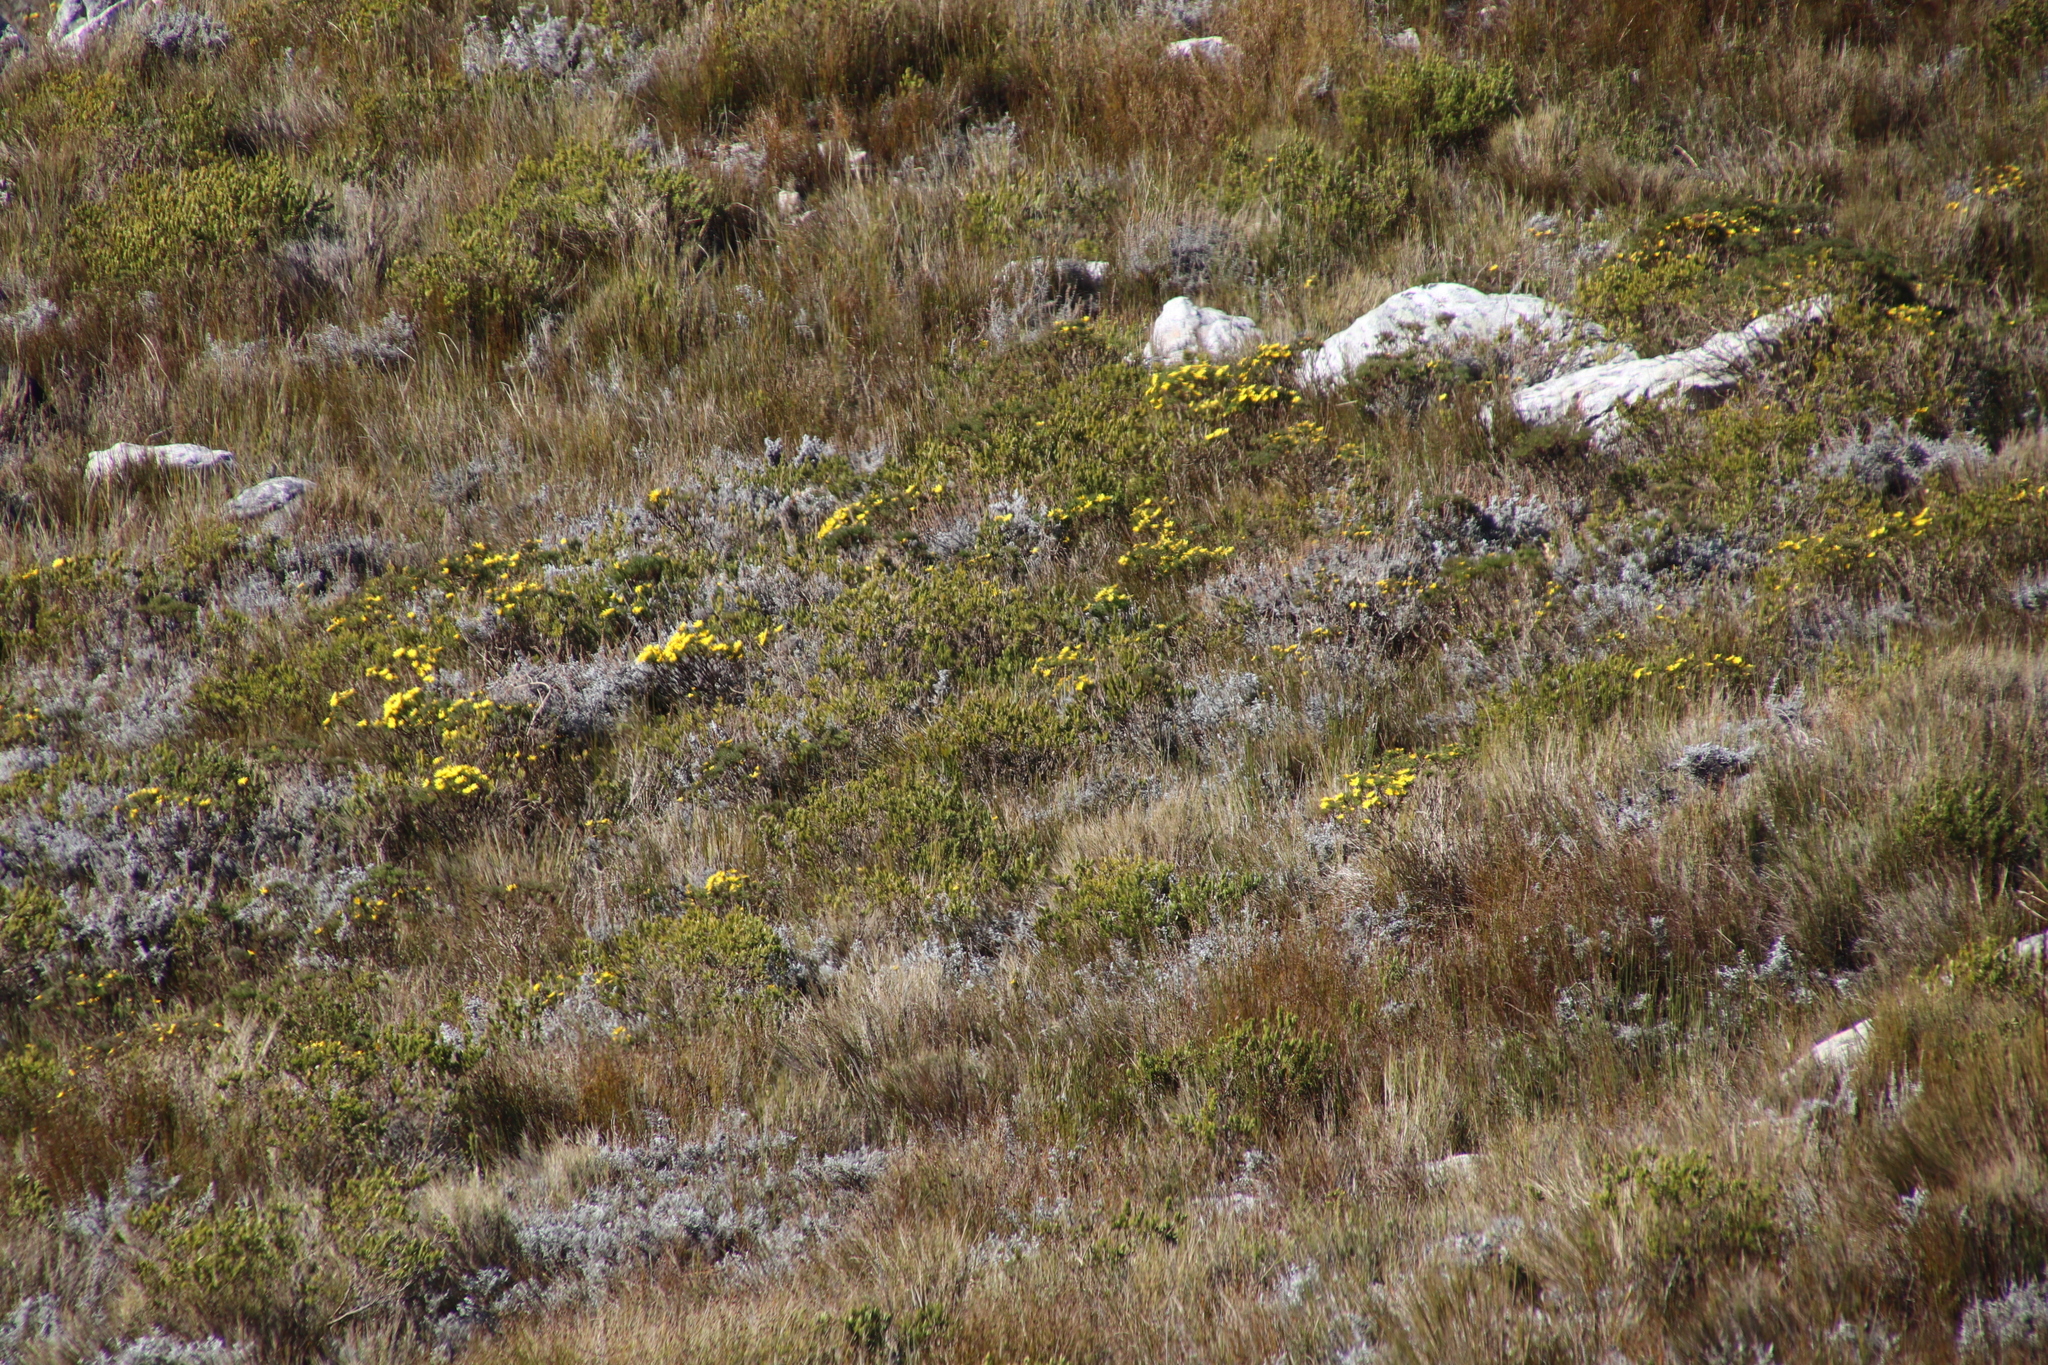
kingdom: Plantae
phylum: Tracheophyta
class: Magnoliopsida
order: Asterales
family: Asteraceae
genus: Euryops
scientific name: Euryops abrotanifolius
